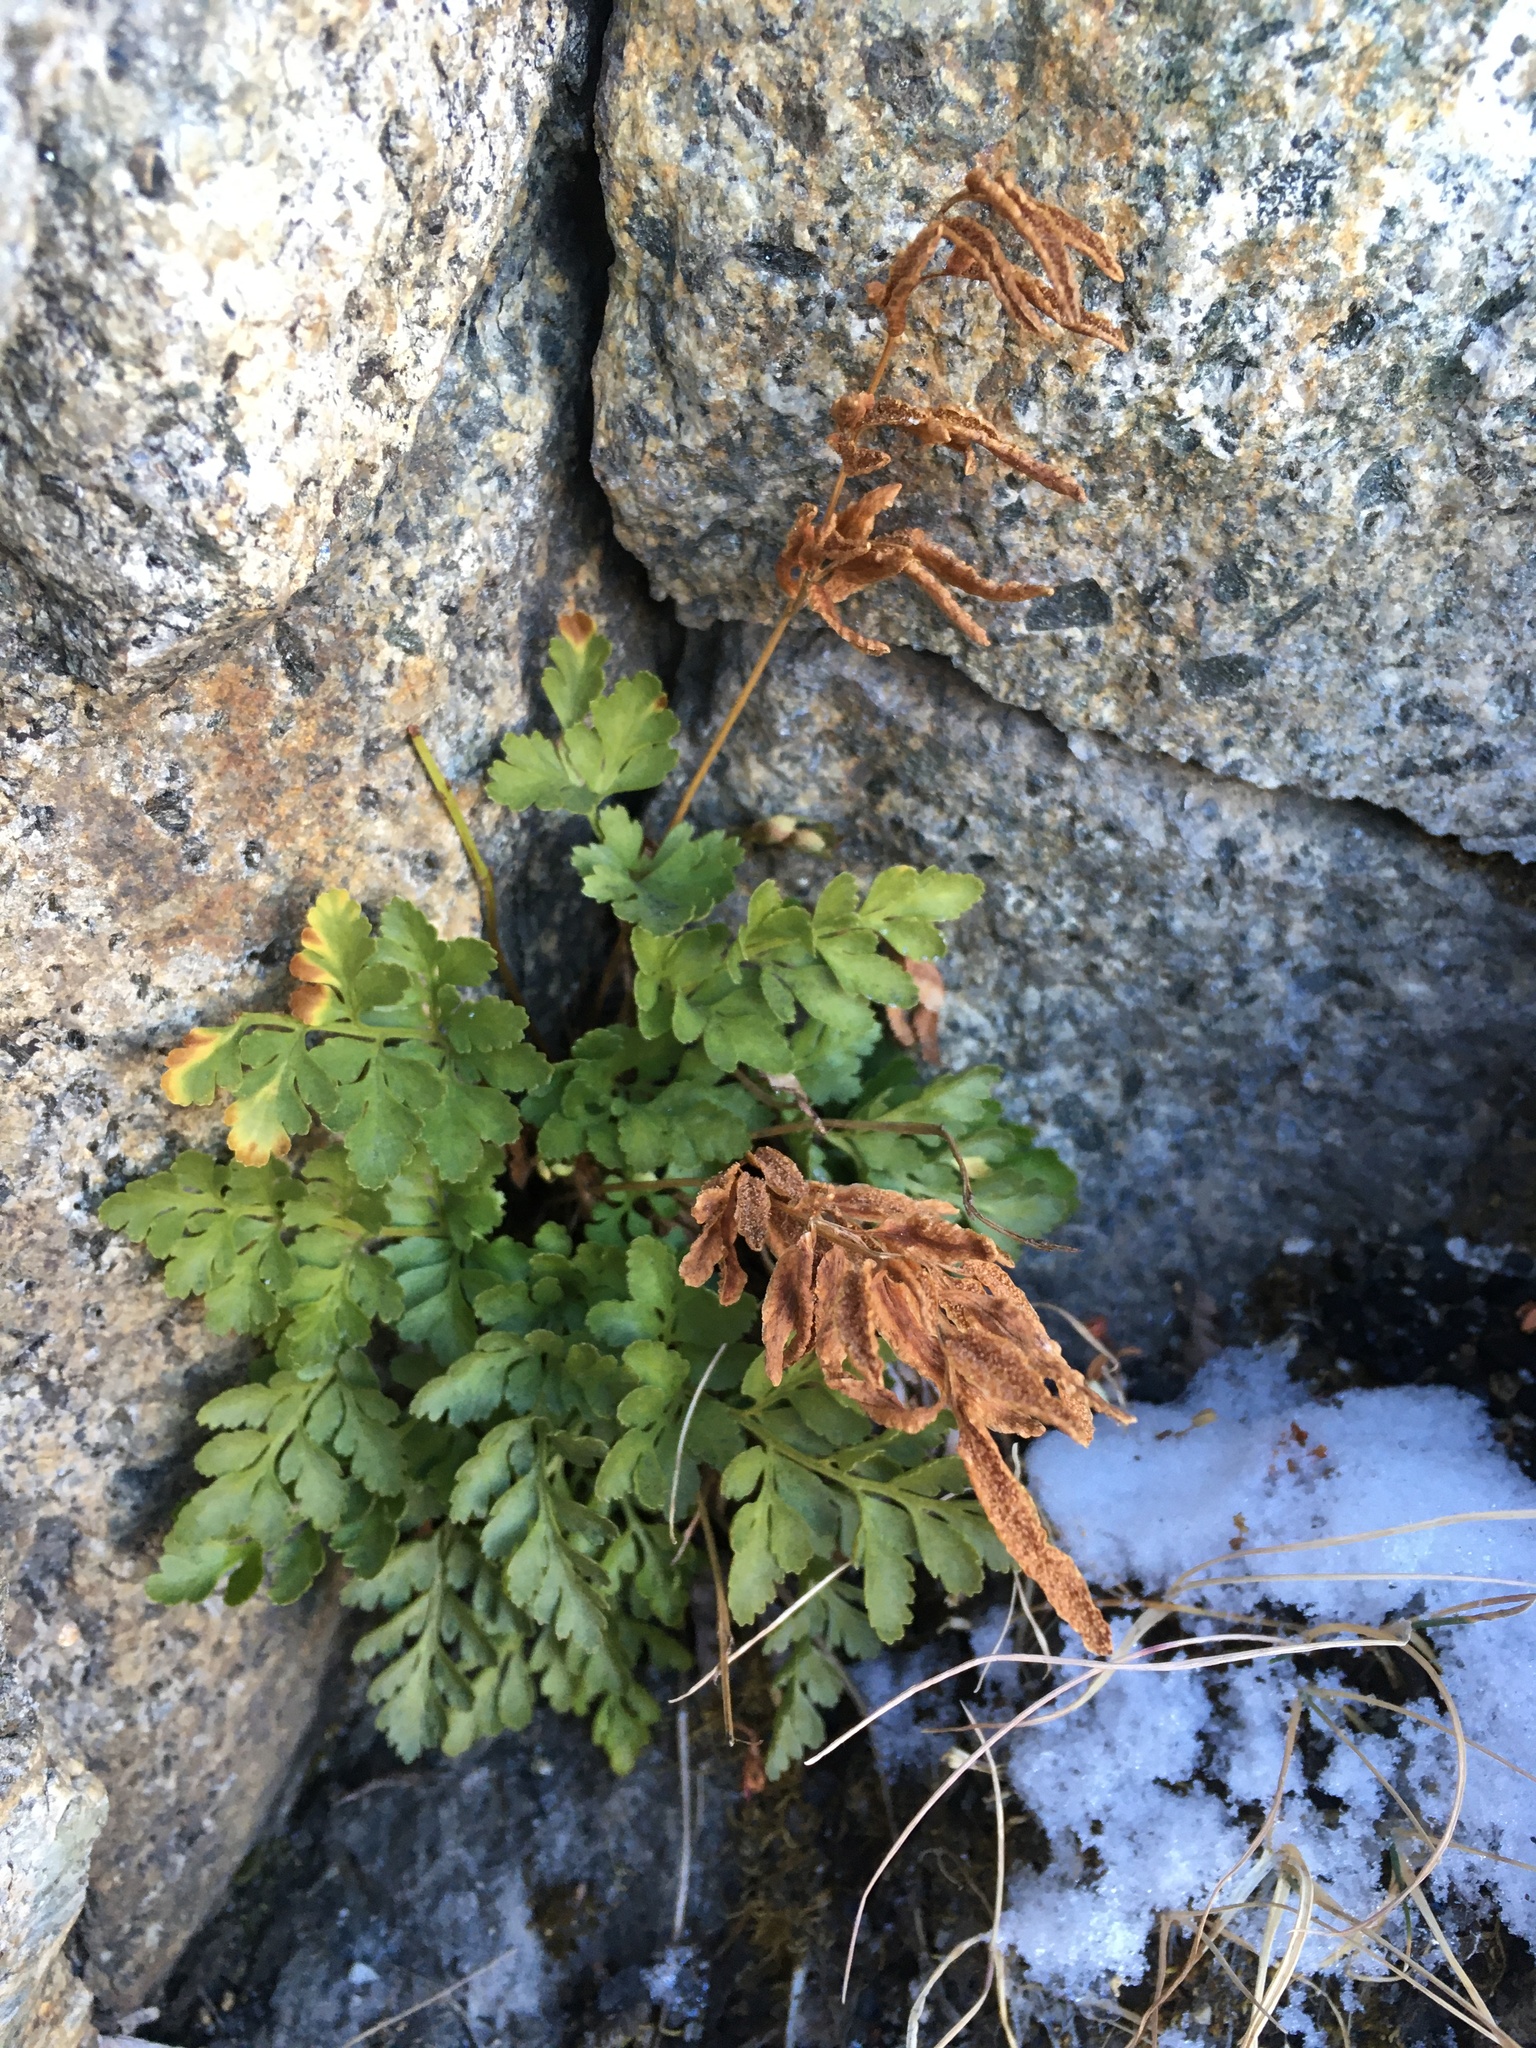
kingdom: Plantae
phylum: Tracheophyta
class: Polypodiopsida
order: Polypodiales
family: Pteridaceae
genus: Cryptogramma
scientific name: Cryptogramma acrostichoides
